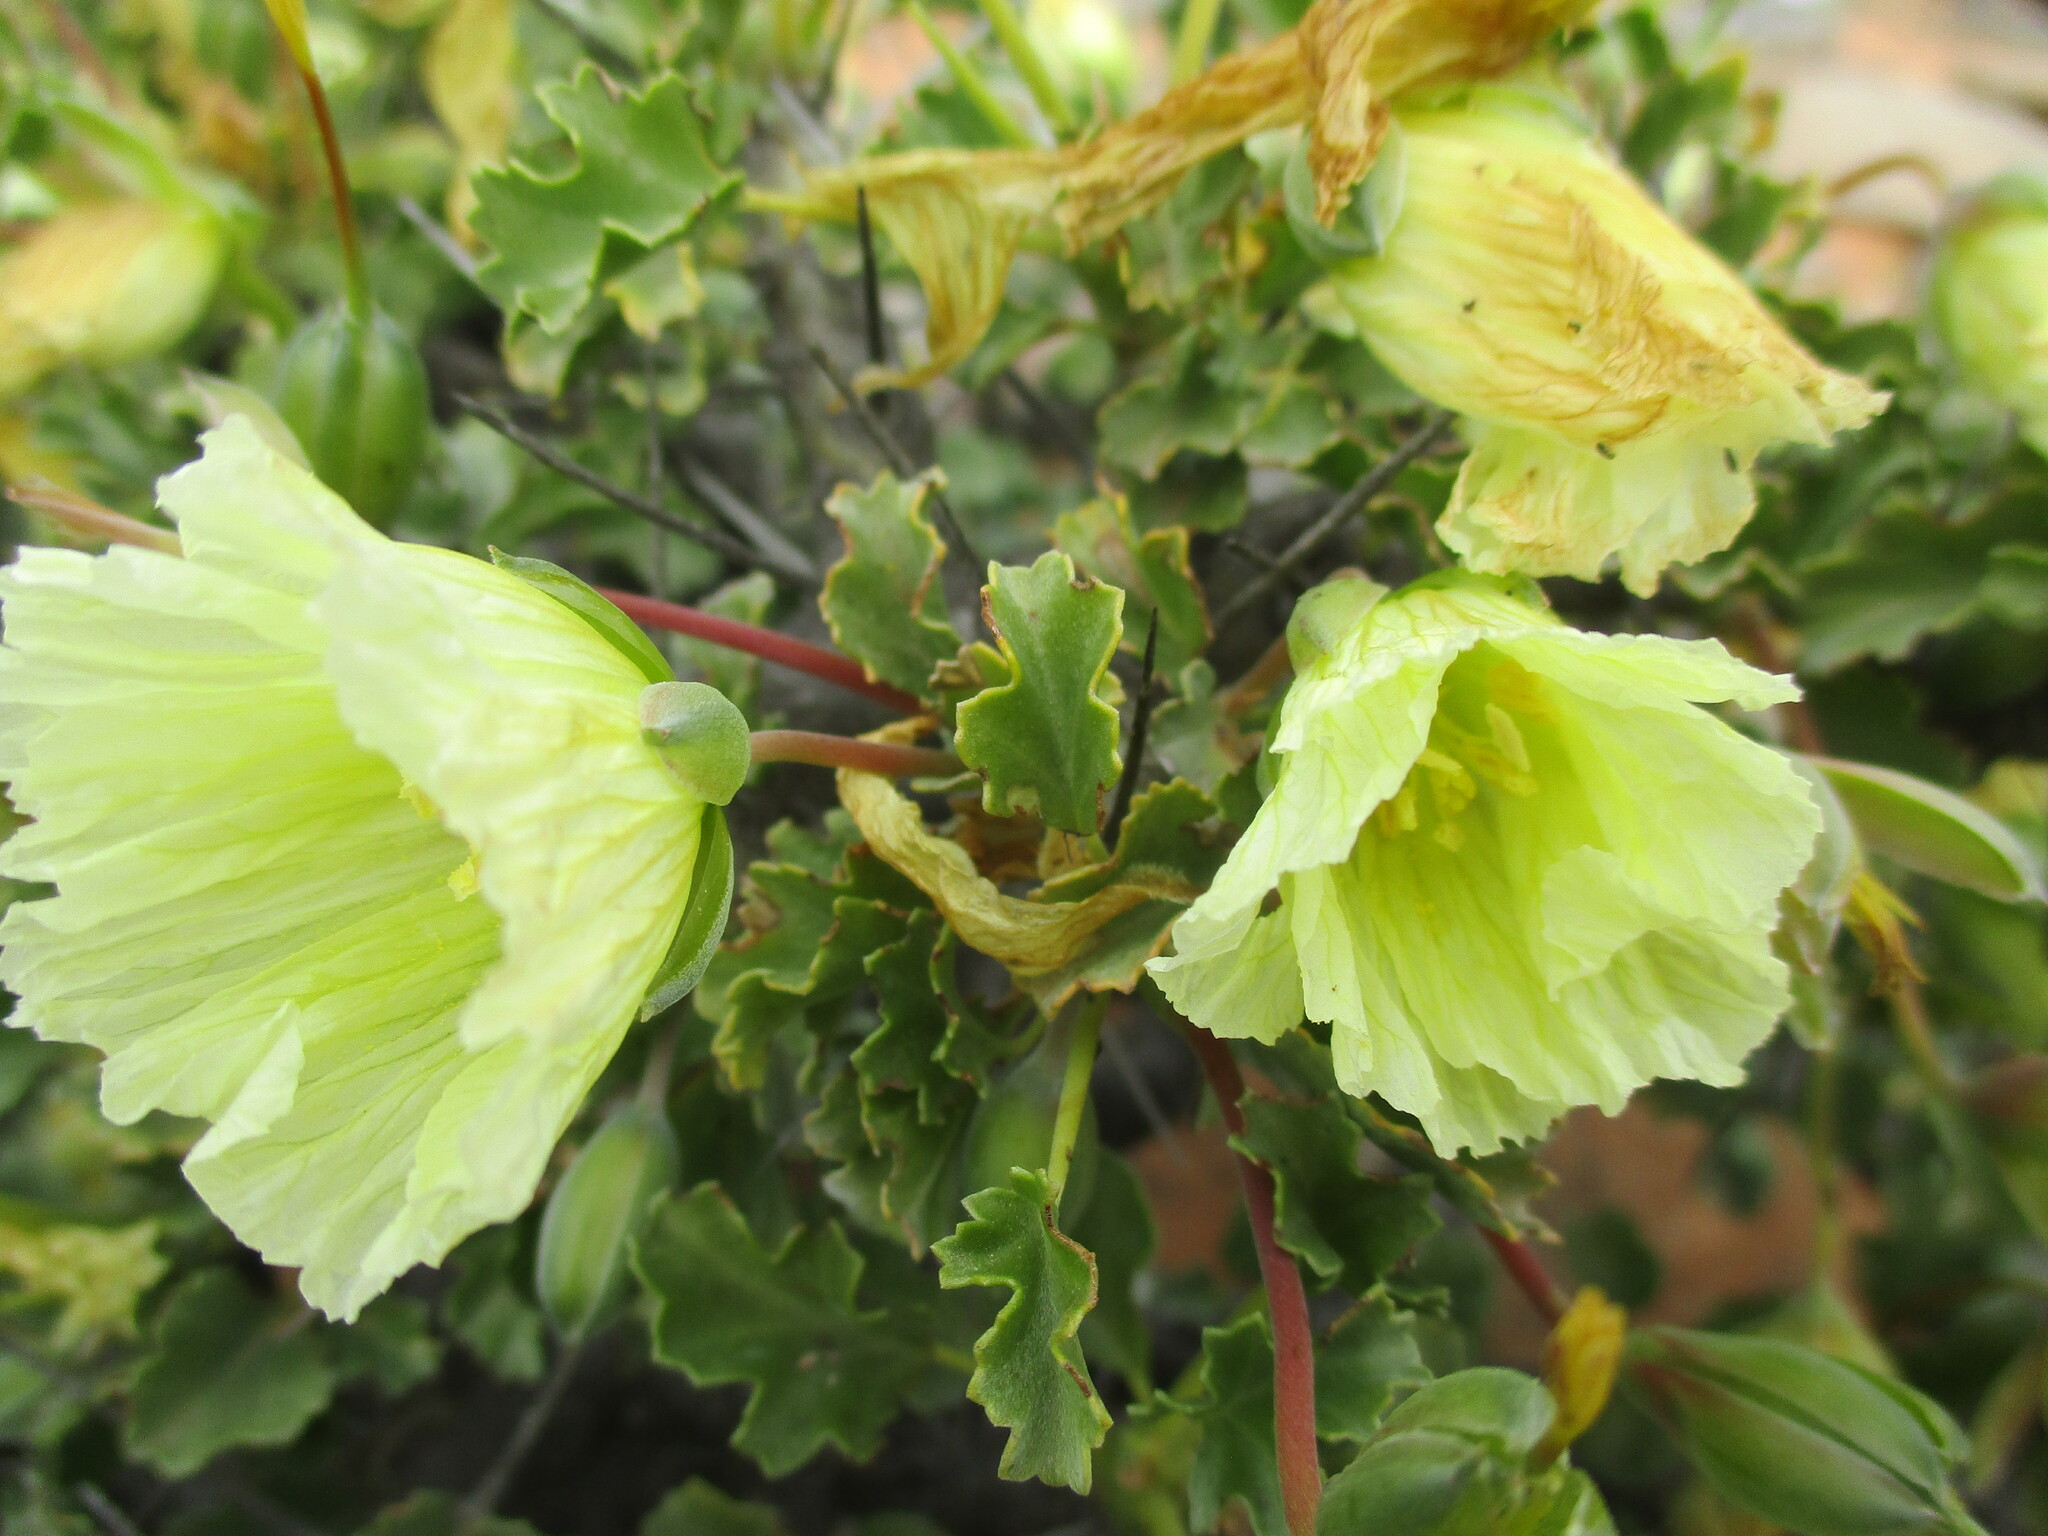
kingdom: Plantae
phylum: Tracheophyta
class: Magnoliopsida
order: Geraniales
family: Geraniaceae
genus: Monsonia
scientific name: Monsonia flavescens
